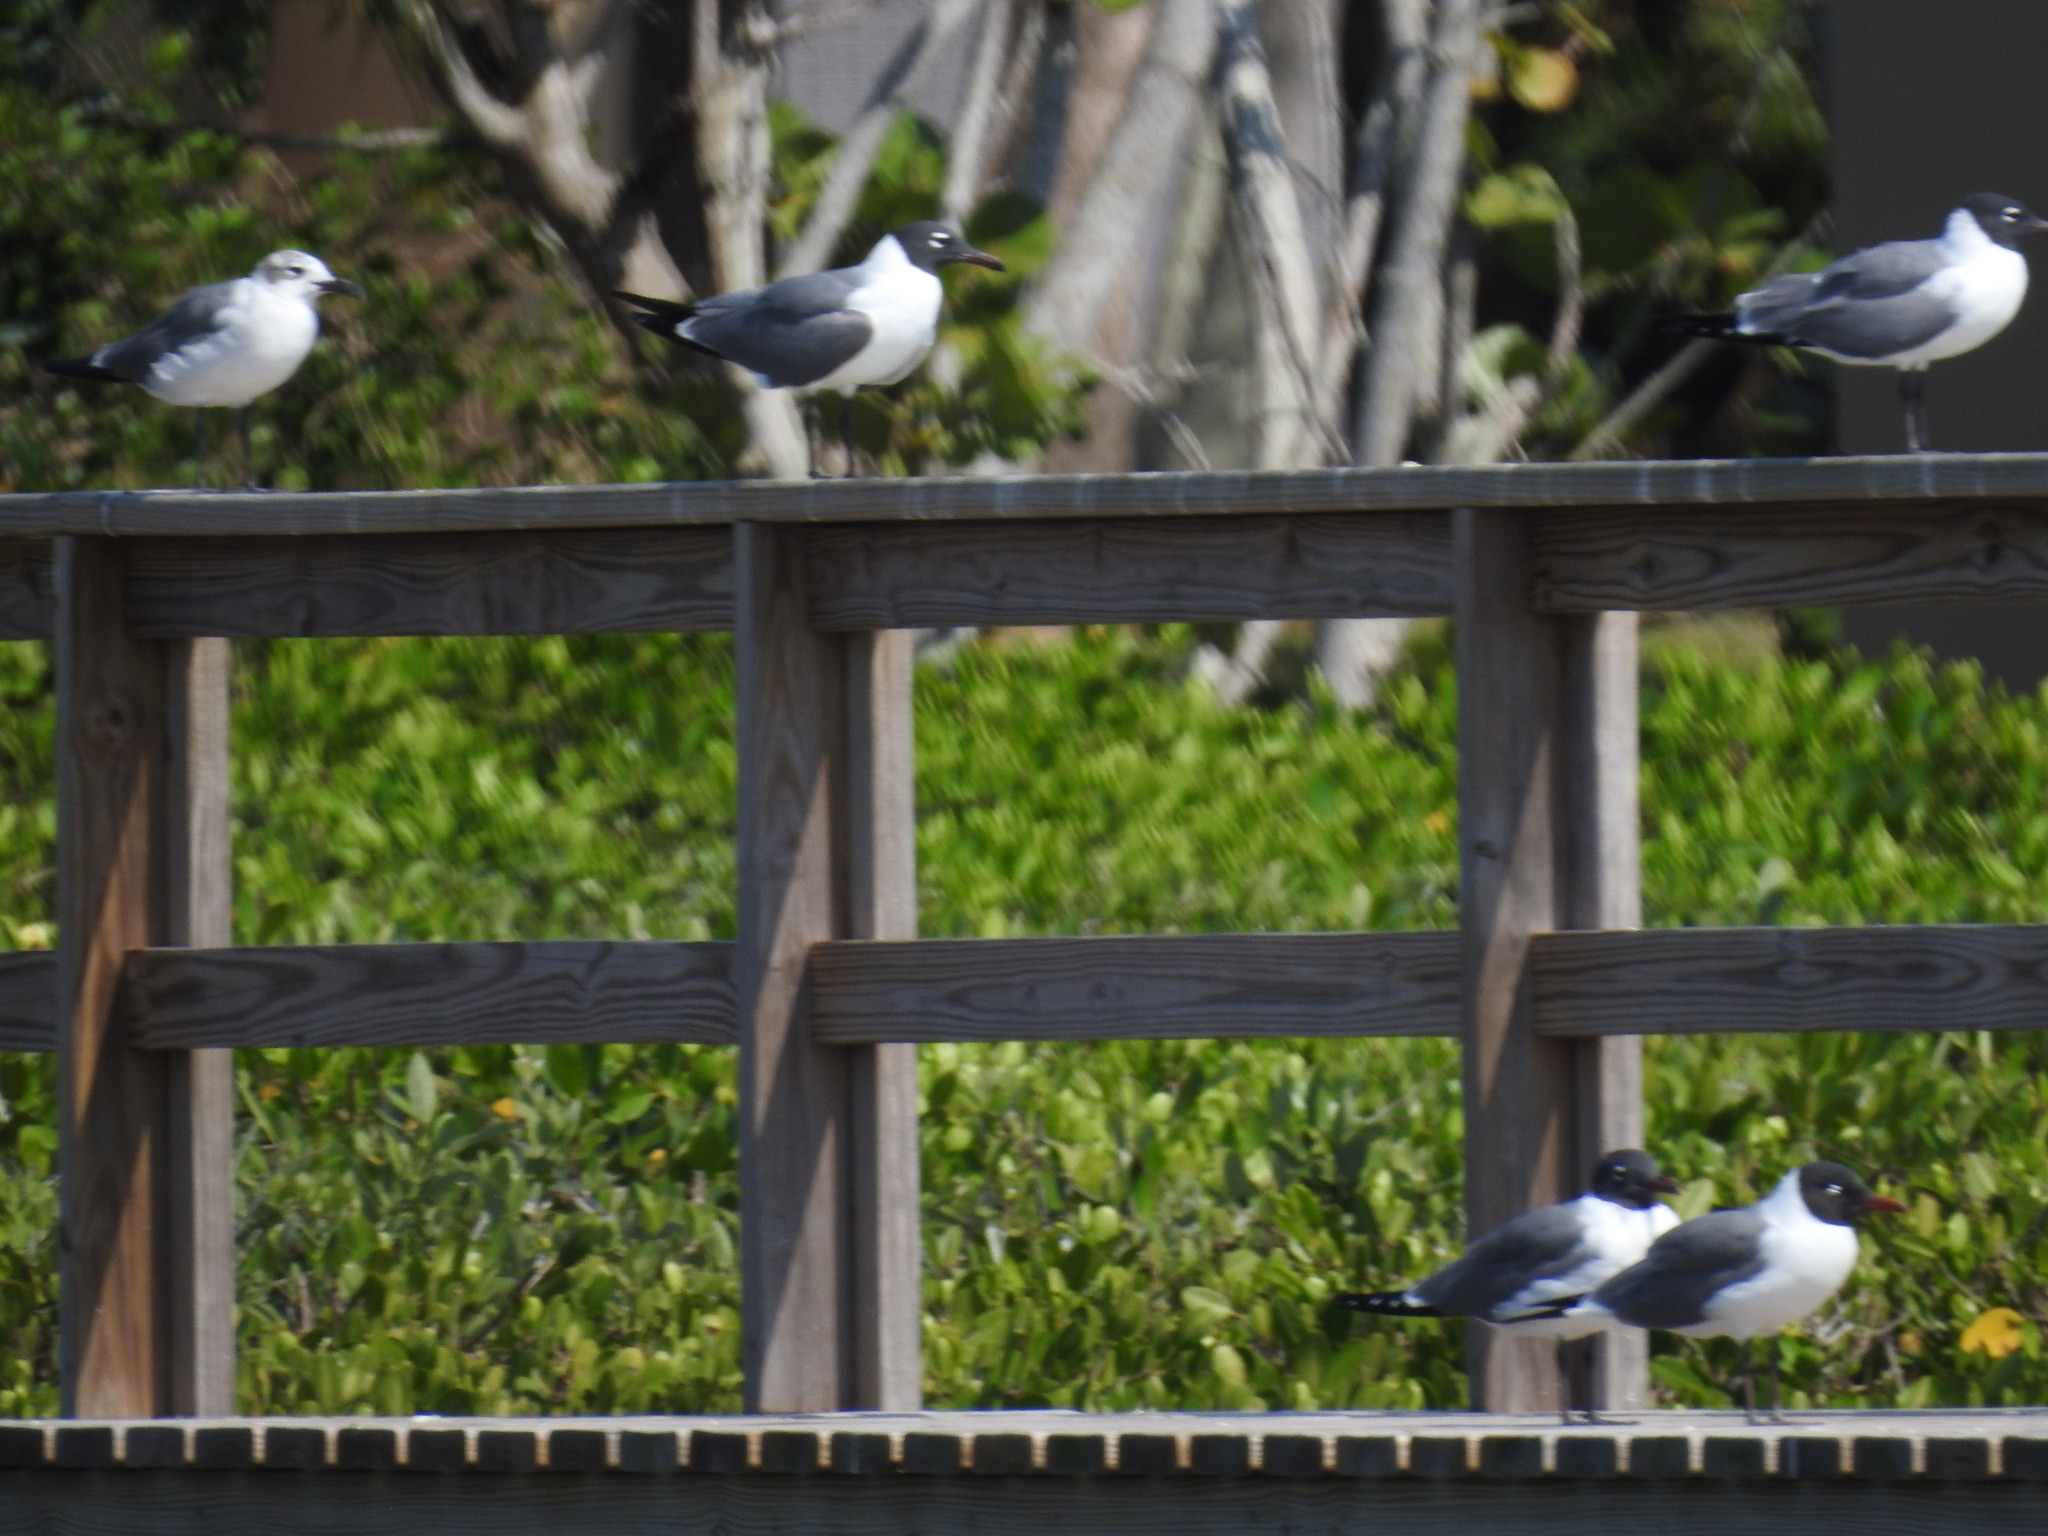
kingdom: Animalia
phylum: Chordata
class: Aves
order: Charadriiformes
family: Laridae
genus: Leucophaeus
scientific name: Leucophaeus atricilla
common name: Laughing gull
